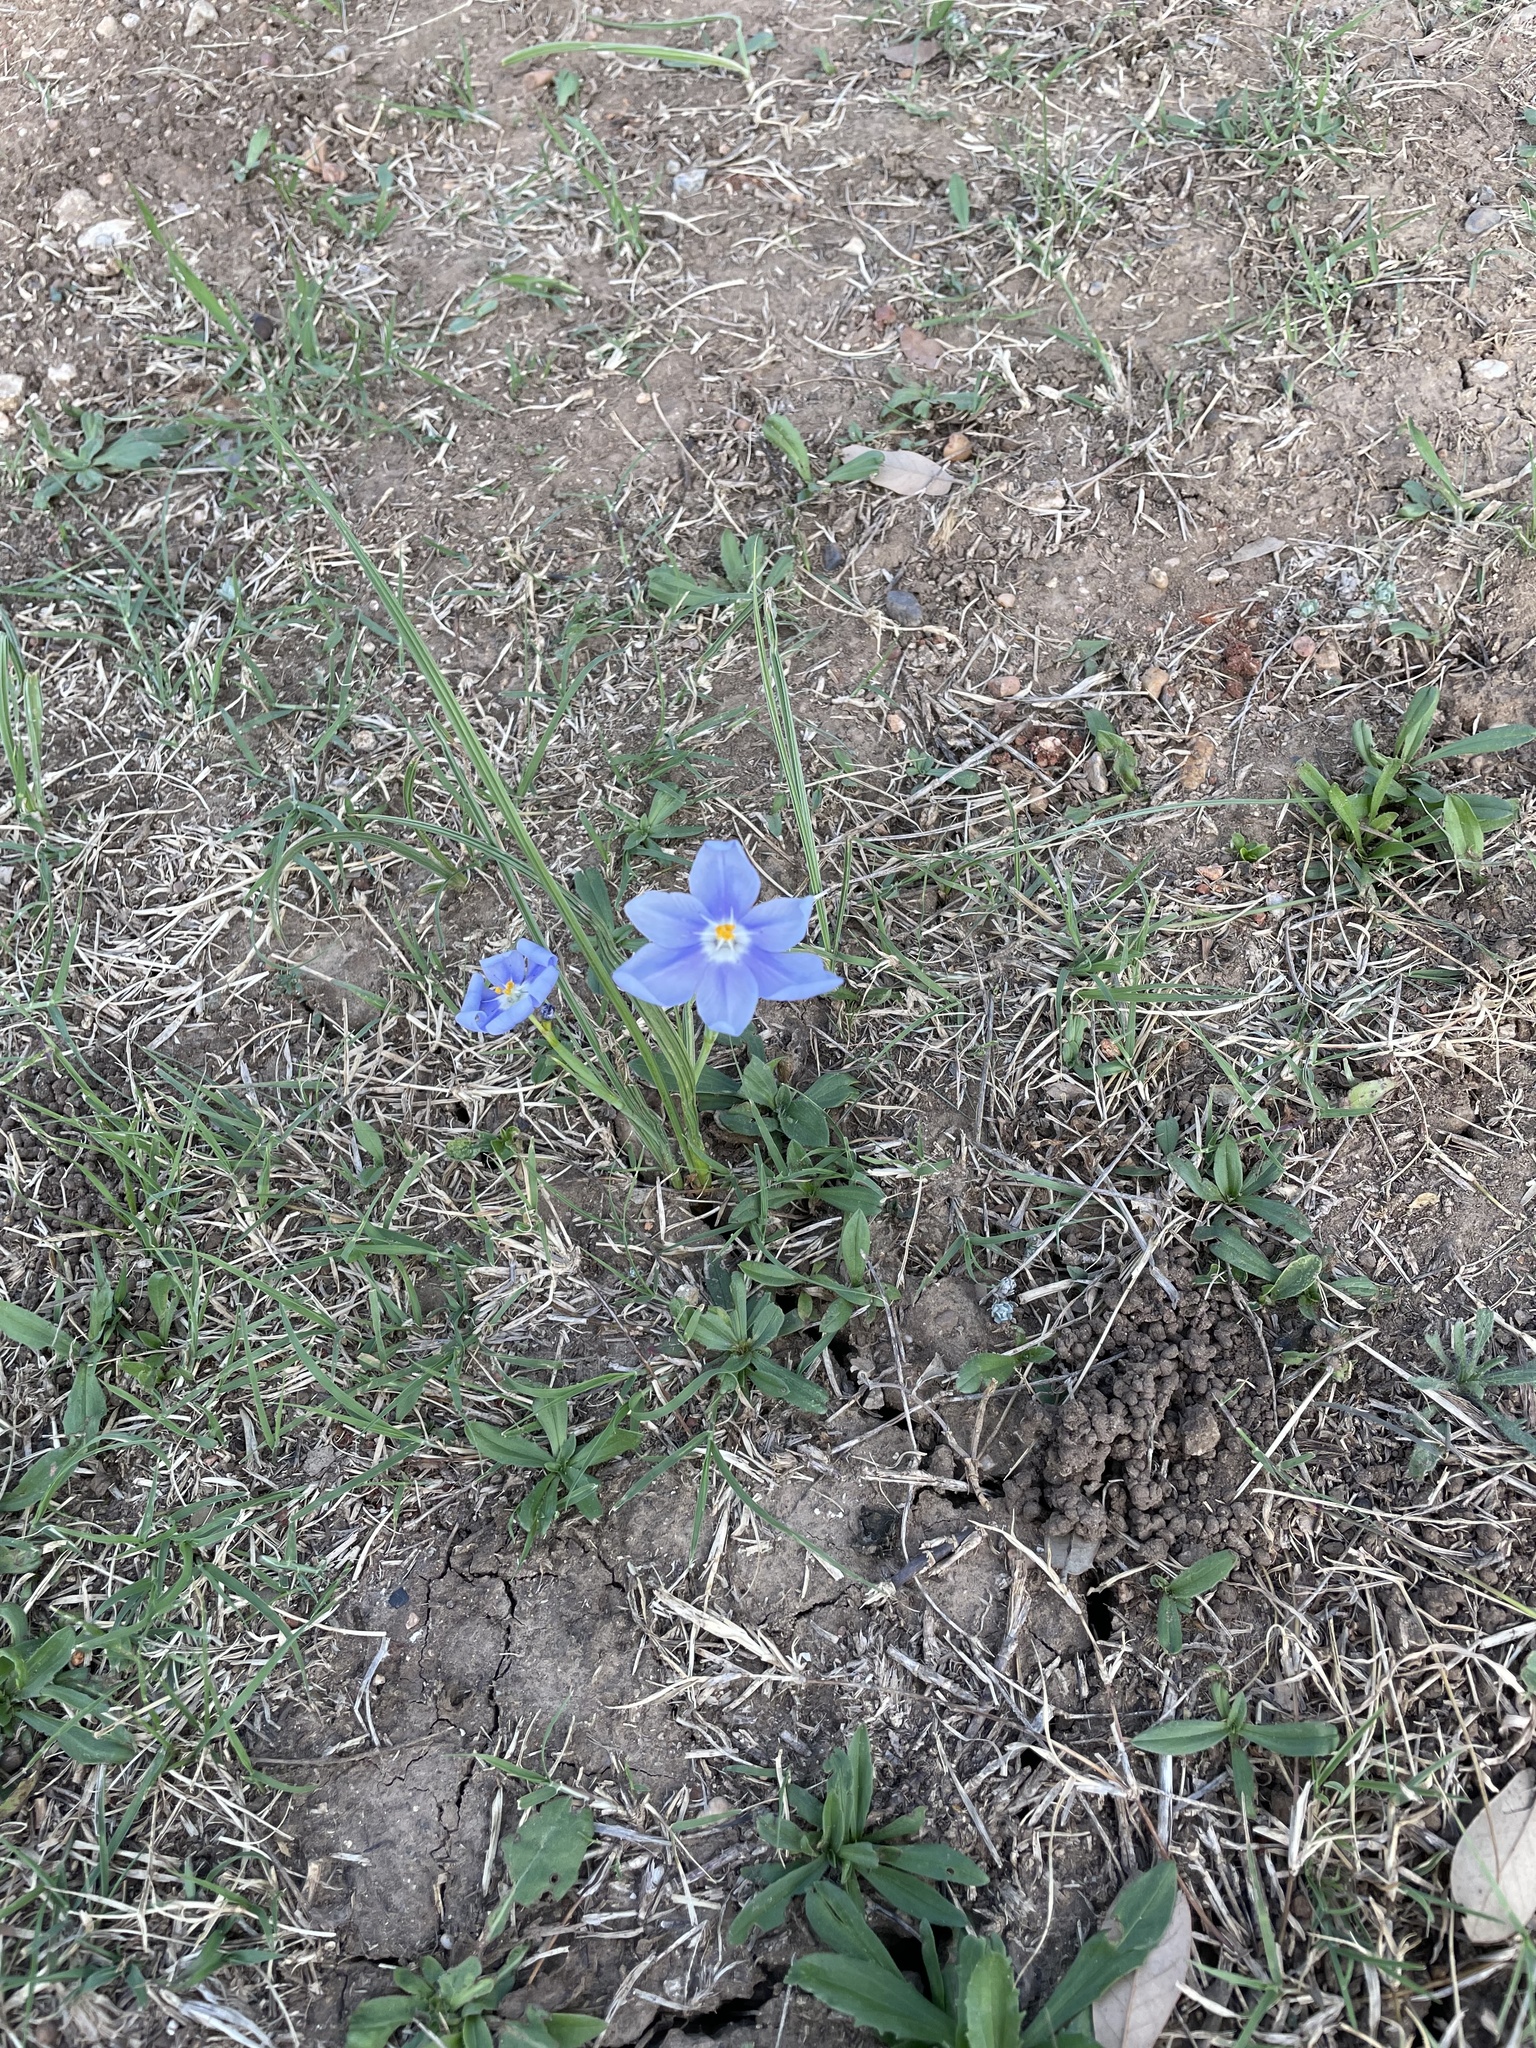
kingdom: Plantae
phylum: Tracheophyta
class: Liliopsida
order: Asparagales
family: Iridaceae
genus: Nemastylis
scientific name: Nemastylis geminiflora
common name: Prairie celestial
